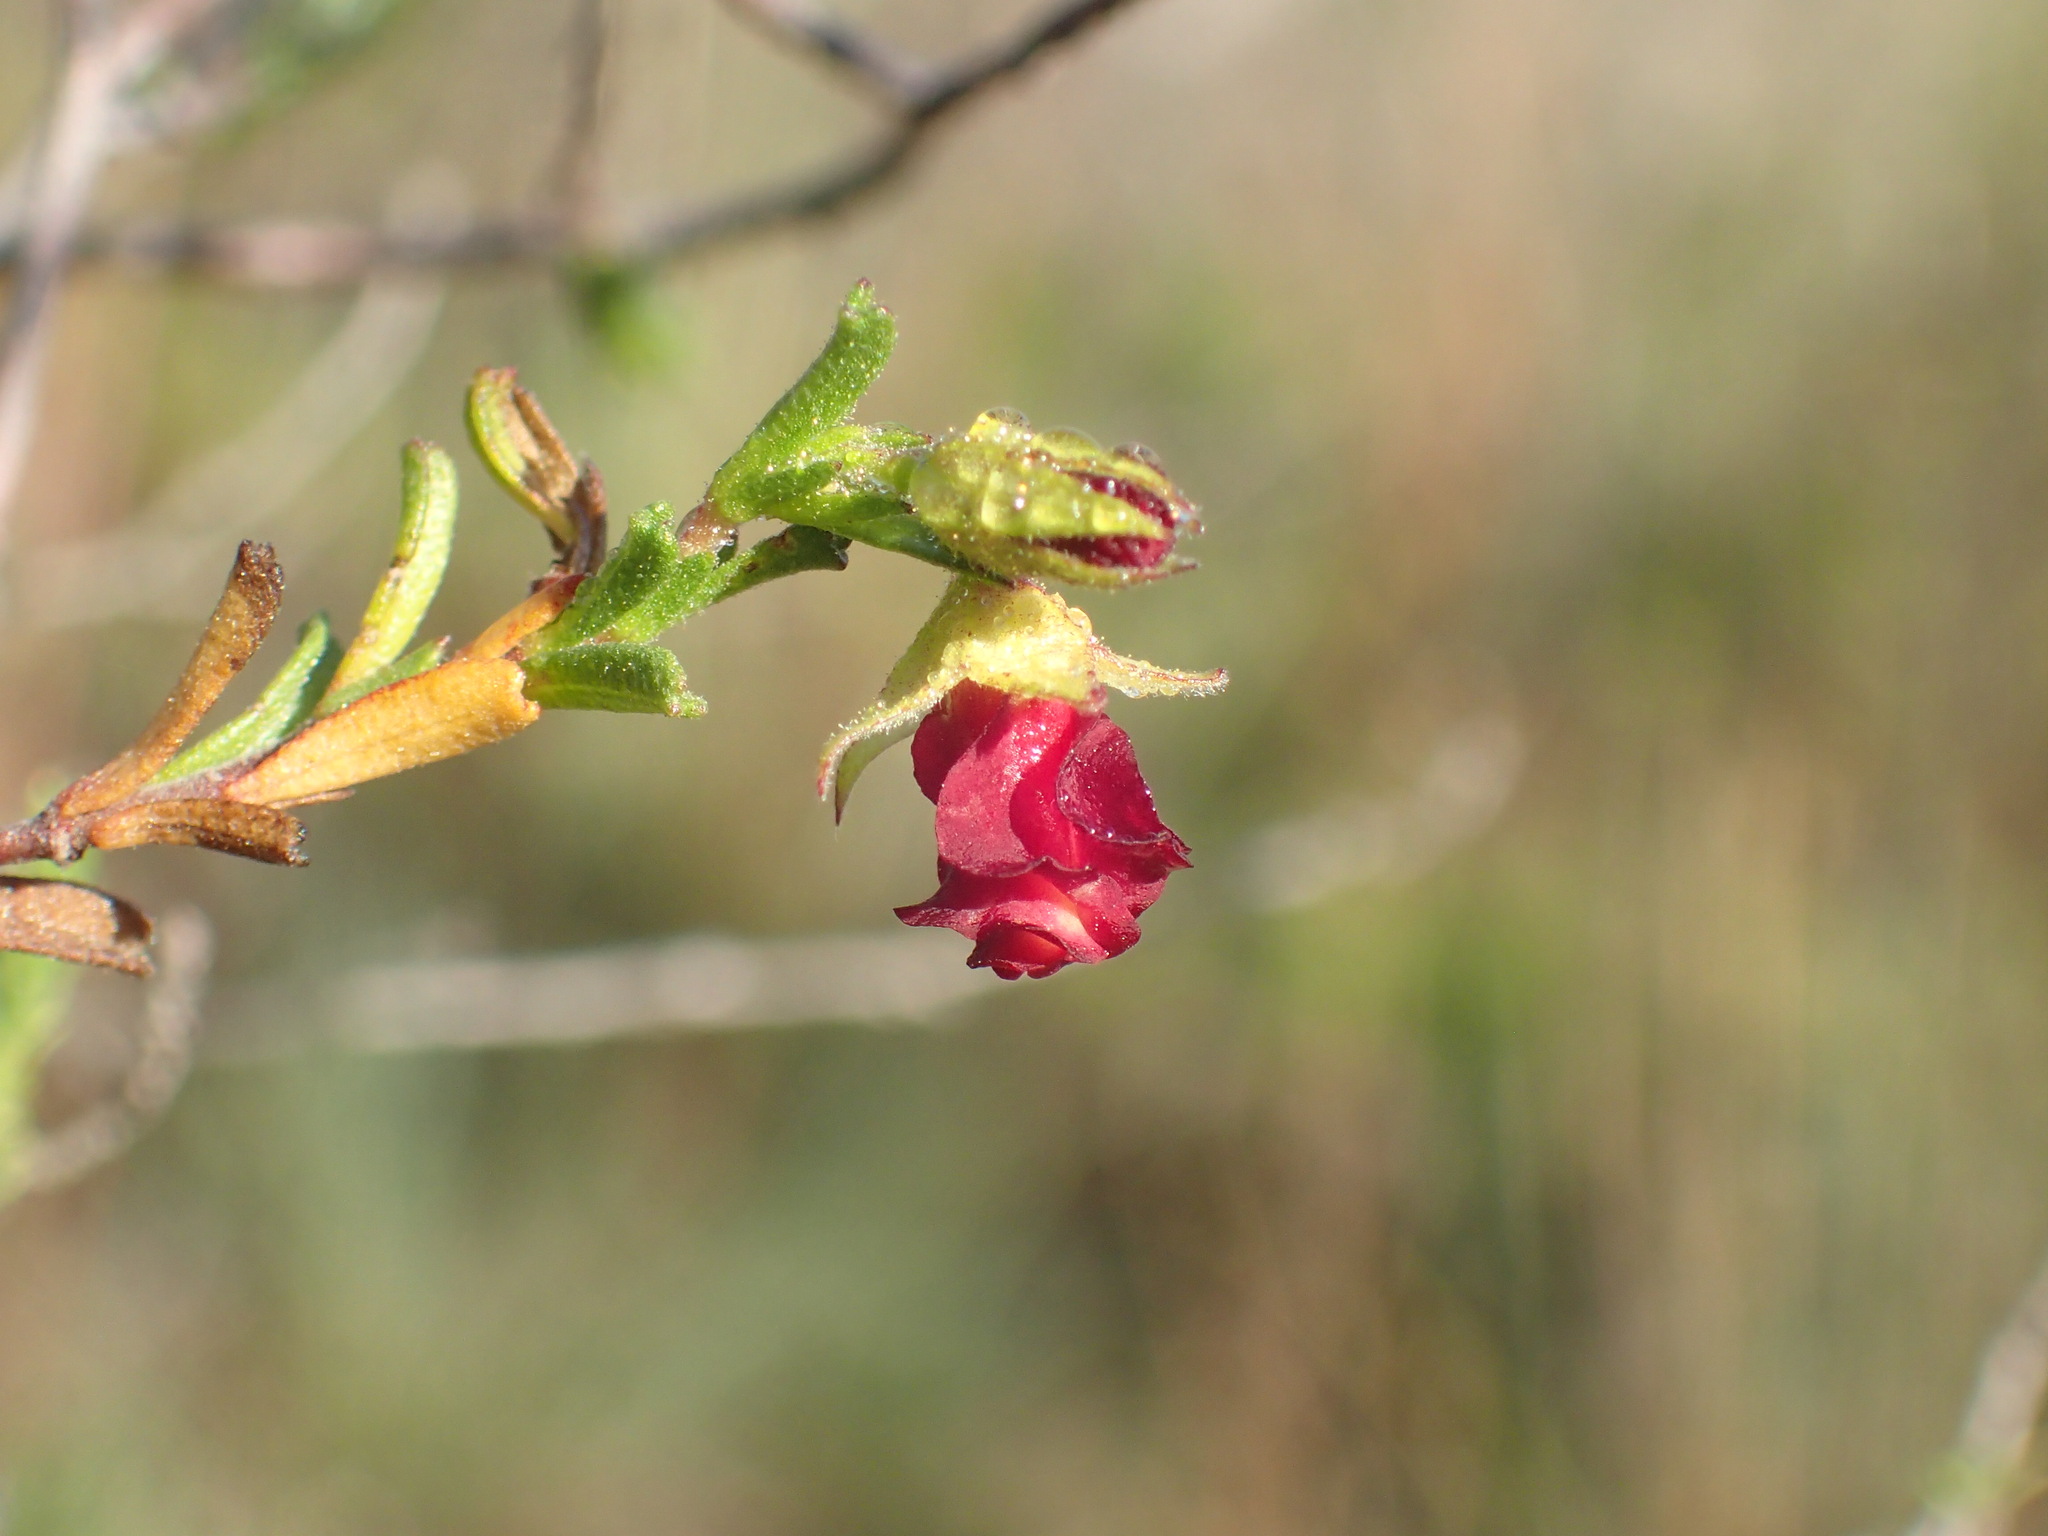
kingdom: Plantae
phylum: Tracheophyta
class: Magnoliopsida
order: Malvales
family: Malvaceae
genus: Hermannia
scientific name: Hermannia flammula
